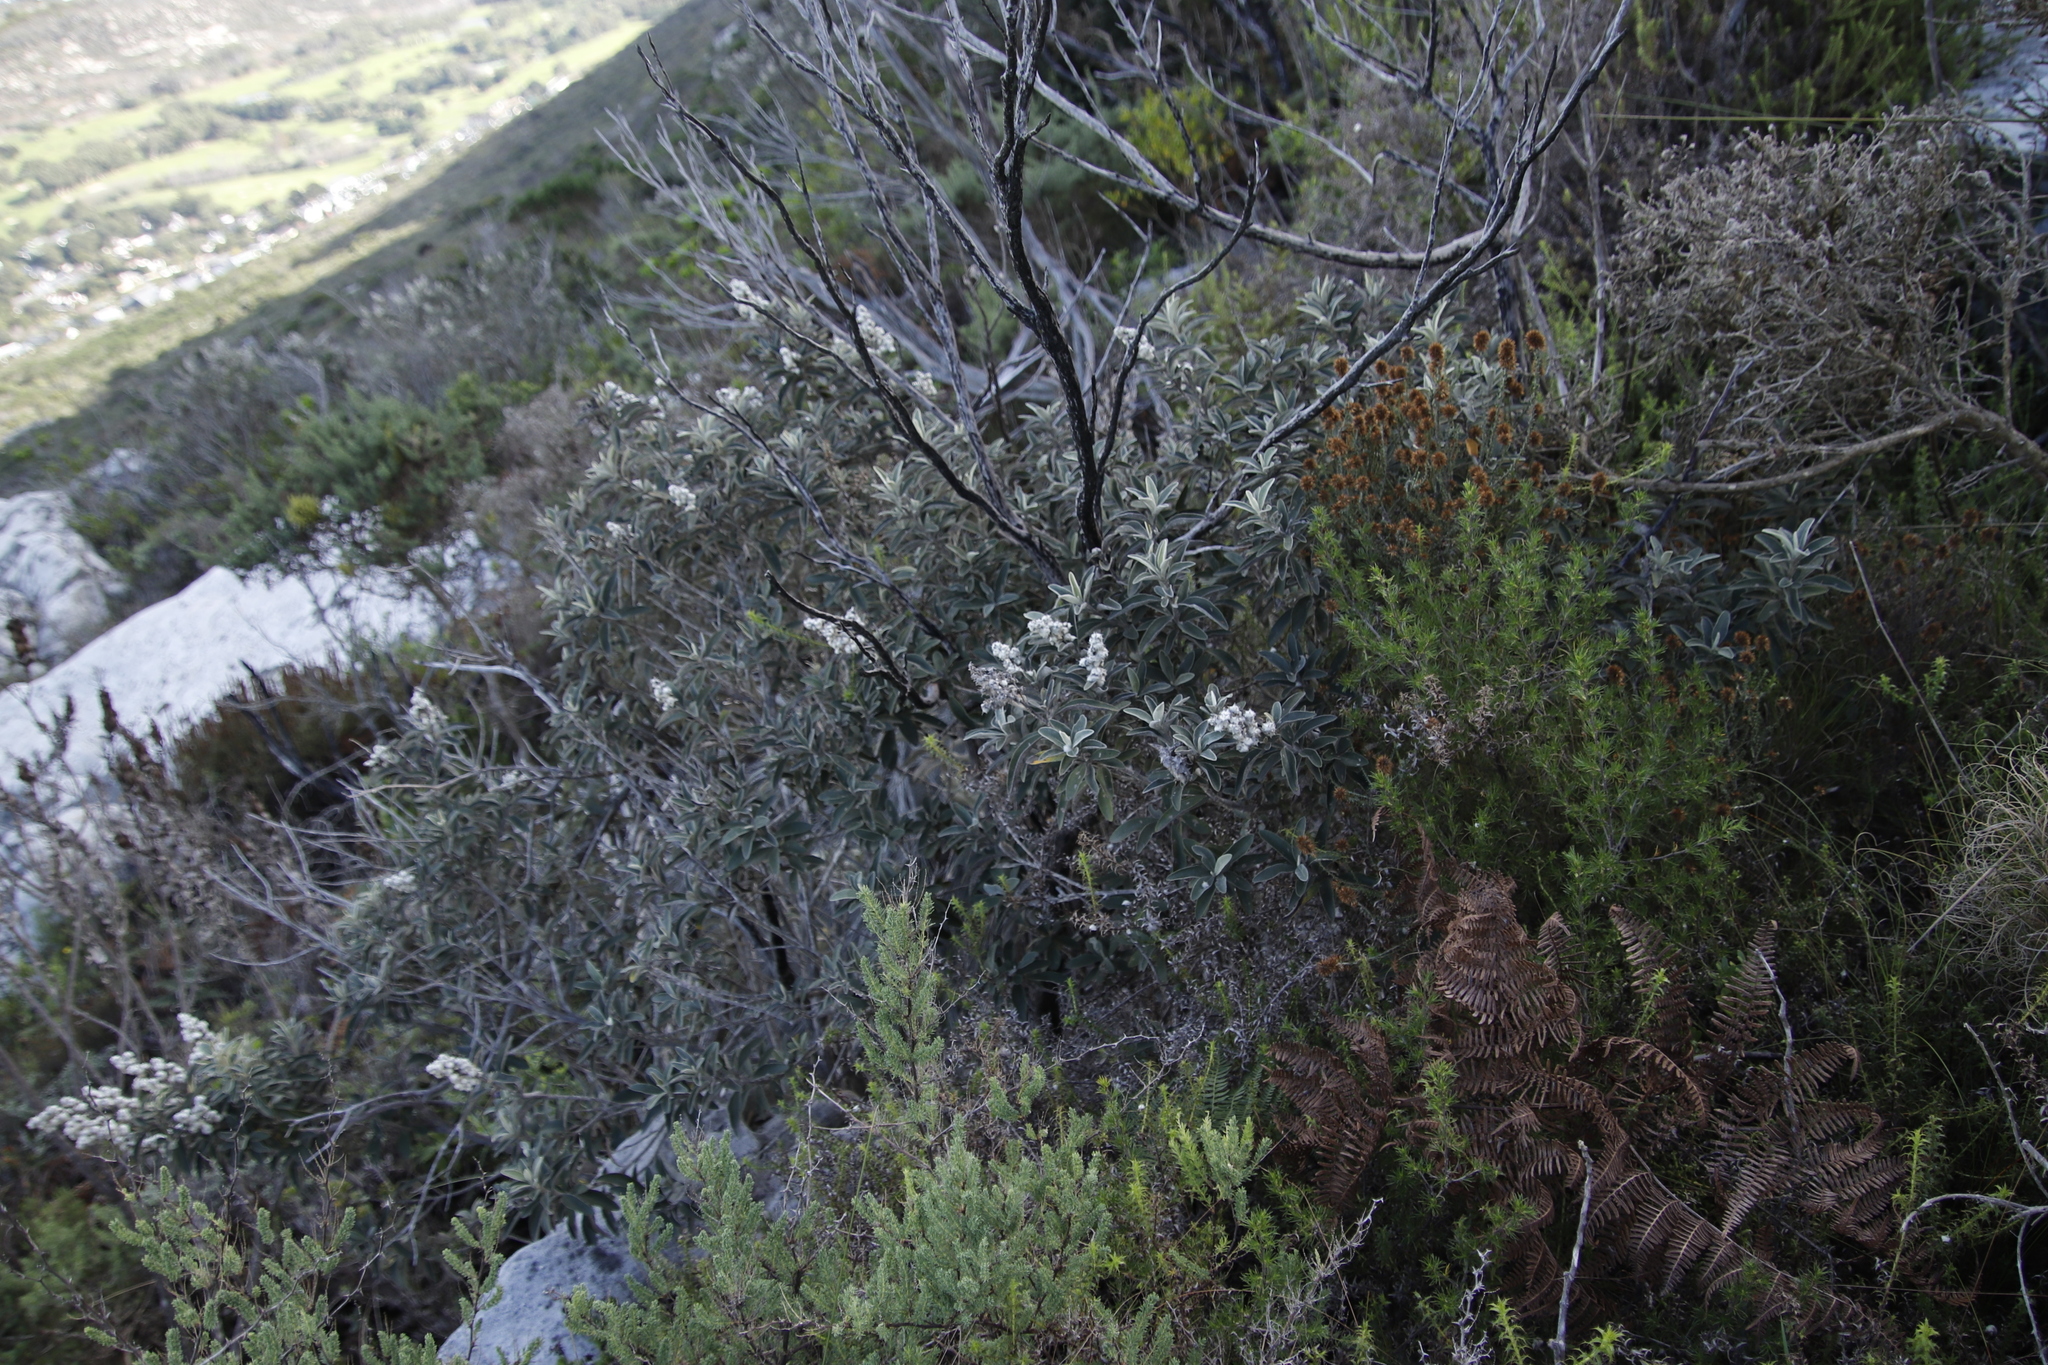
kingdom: Plantae
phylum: Tracheophyta
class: Magnoliopsida
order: Asterales
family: Asteraceae
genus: Tarchonanthus
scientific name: Tarchonanthus littoralis
